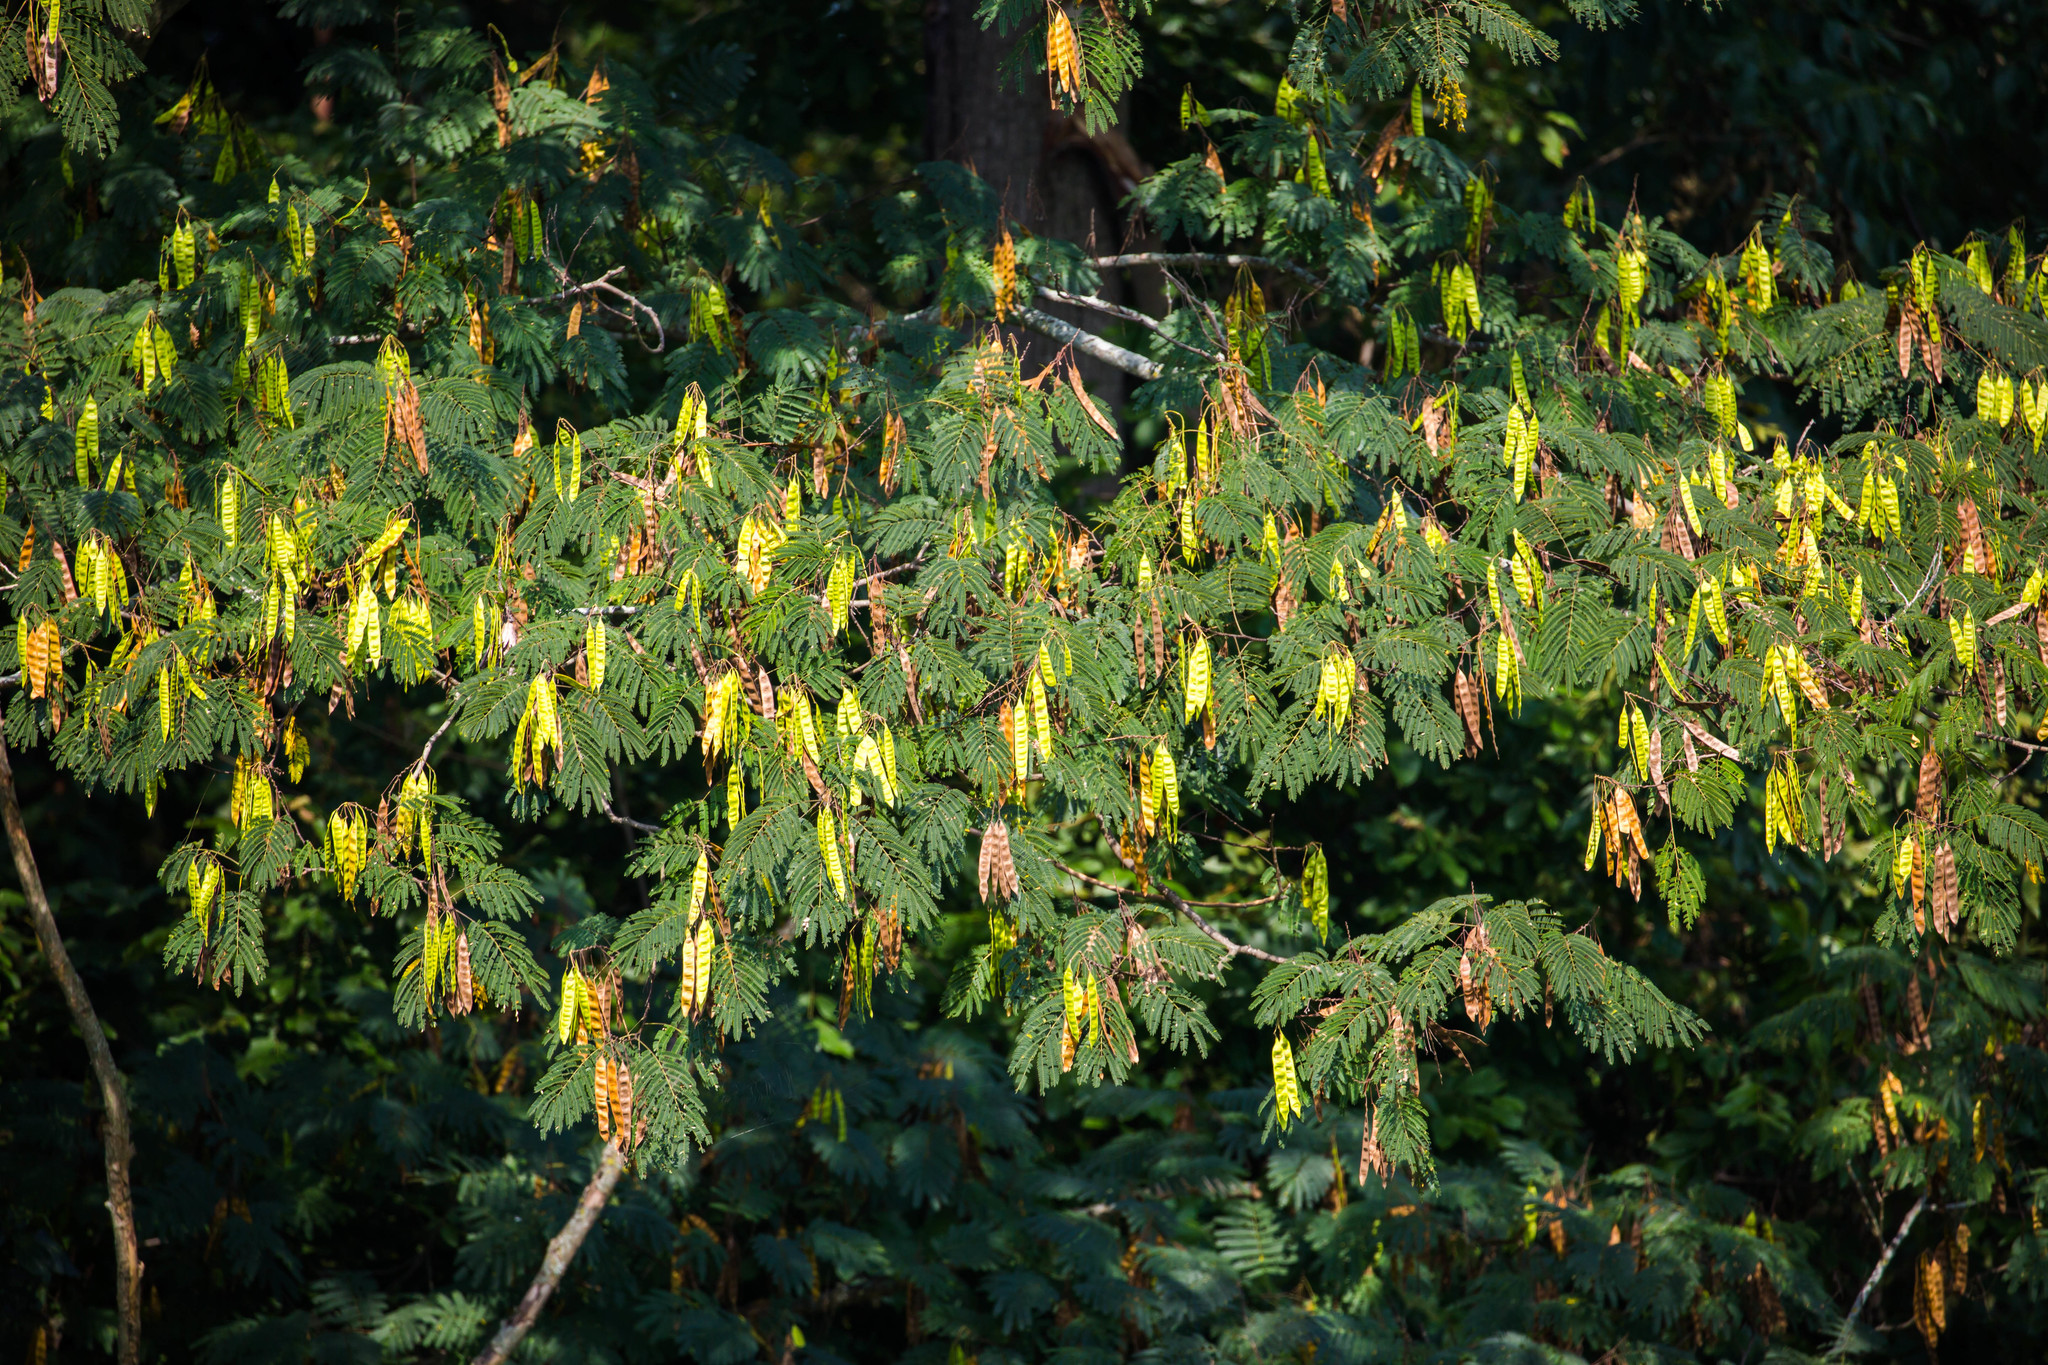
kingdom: Plantae
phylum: Tracheophyta
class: Magnoliopsida
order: Fabales
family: Fabaceae
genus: Albizia
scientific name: Albizia julibrissin
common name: Silktree
